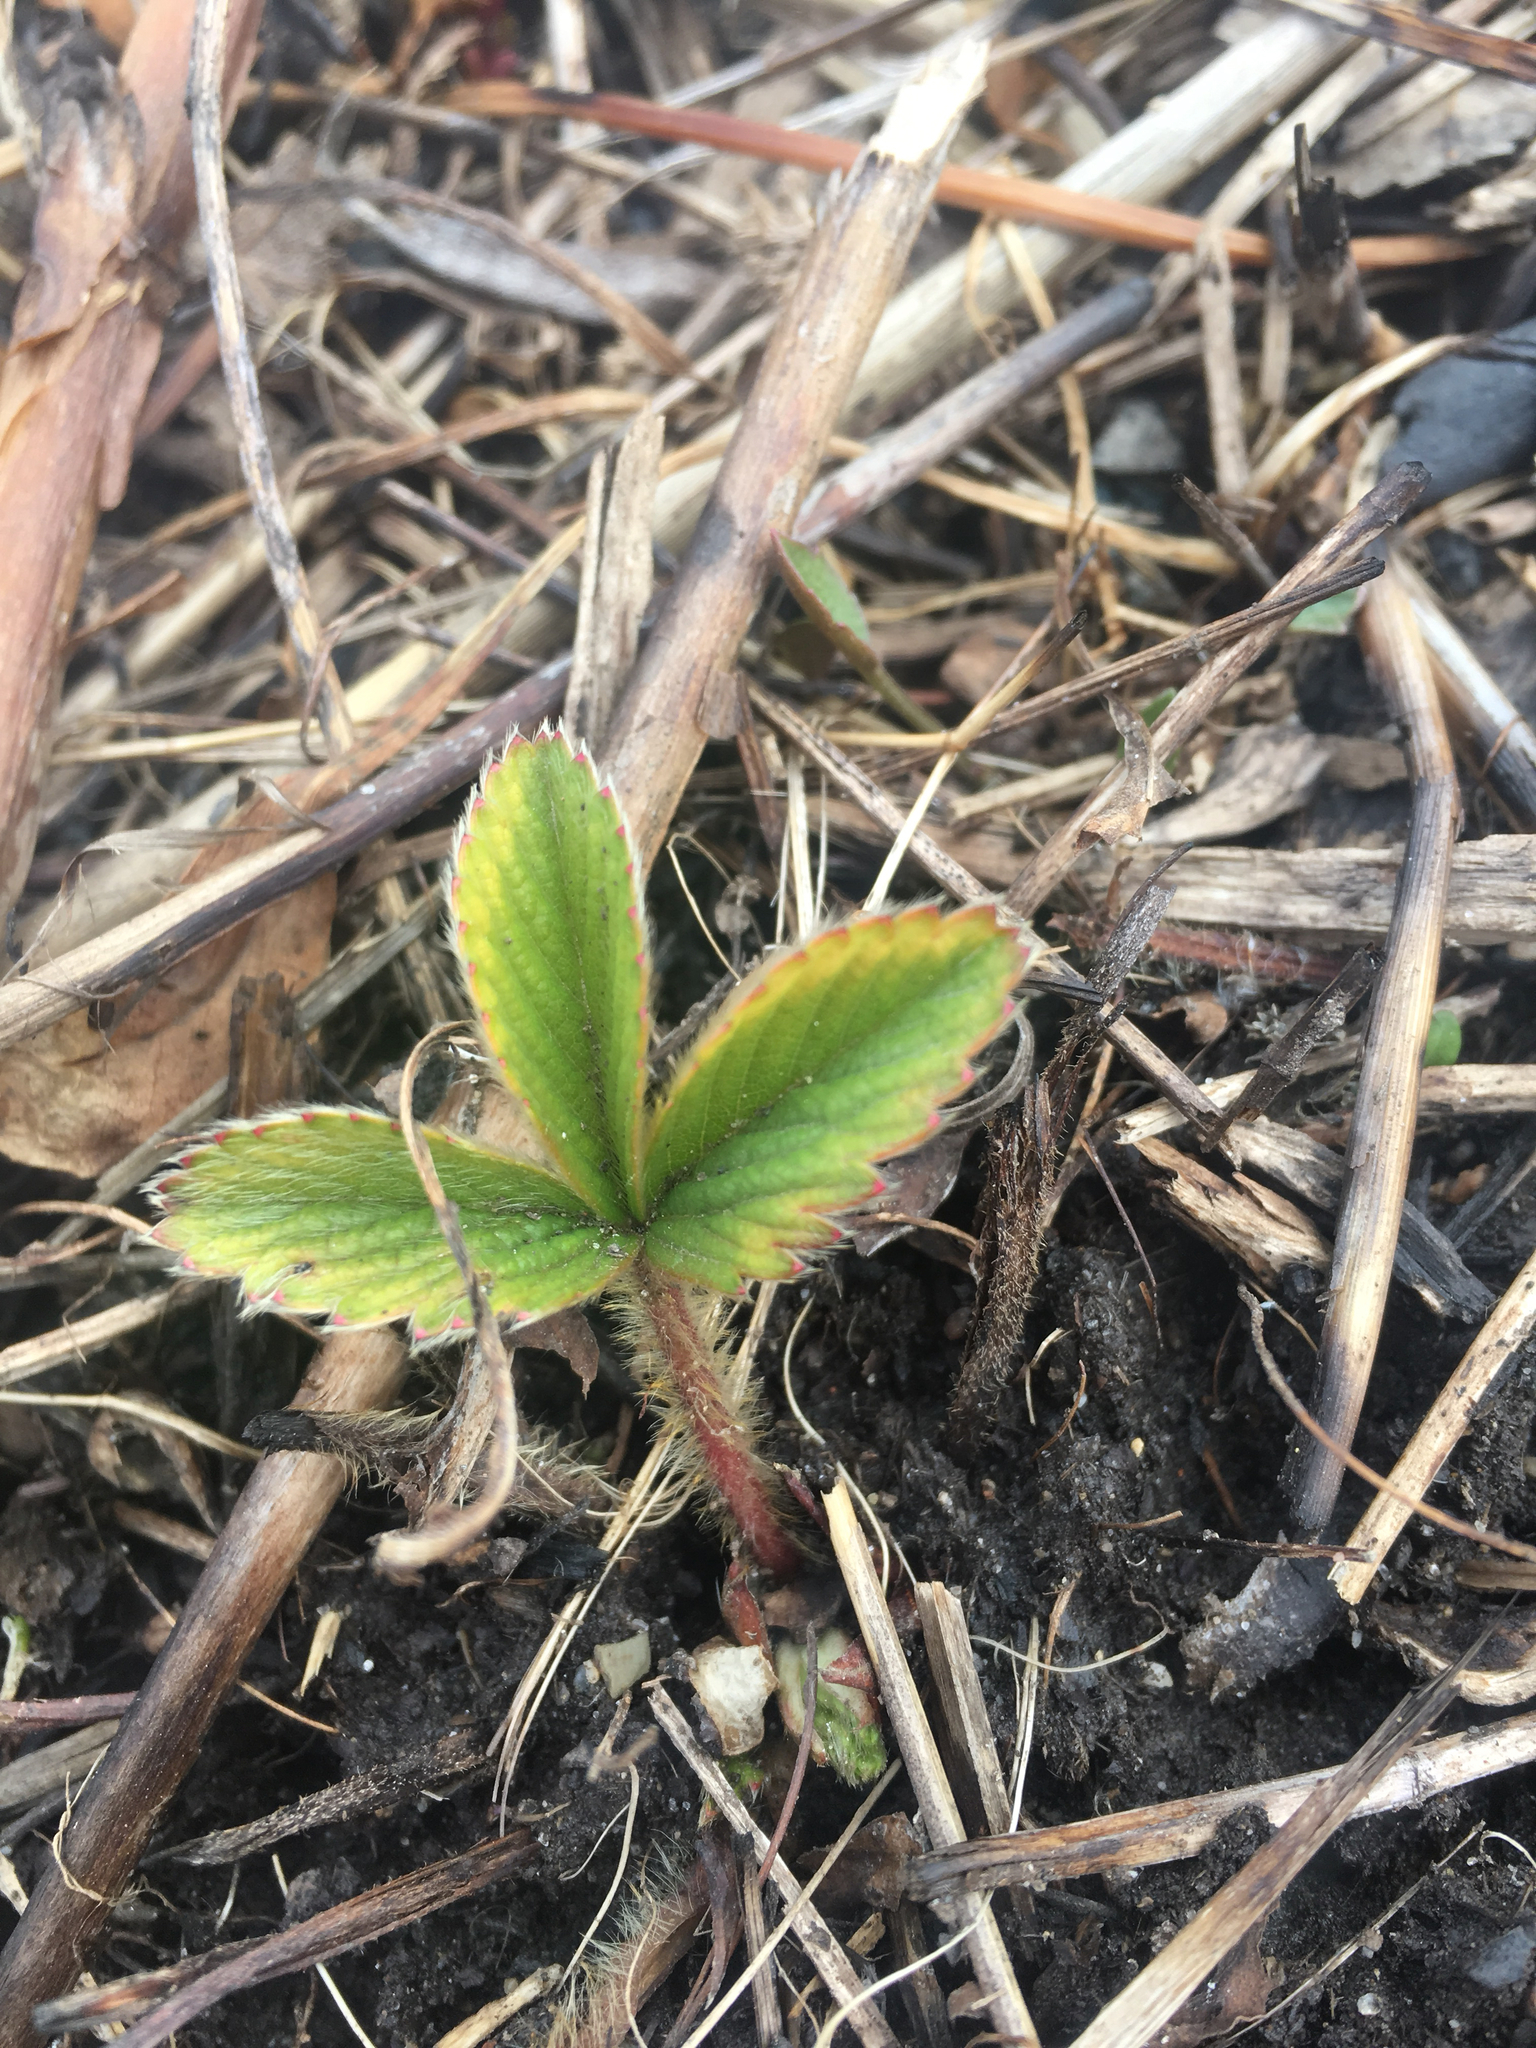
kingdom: Plantae
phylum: Tracheophyta
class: Magnoliopsida
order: Rosales
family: Rosaceae
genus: Fragaria
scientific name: Fragaria virginiana
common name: Thickleaved wild strawberry
